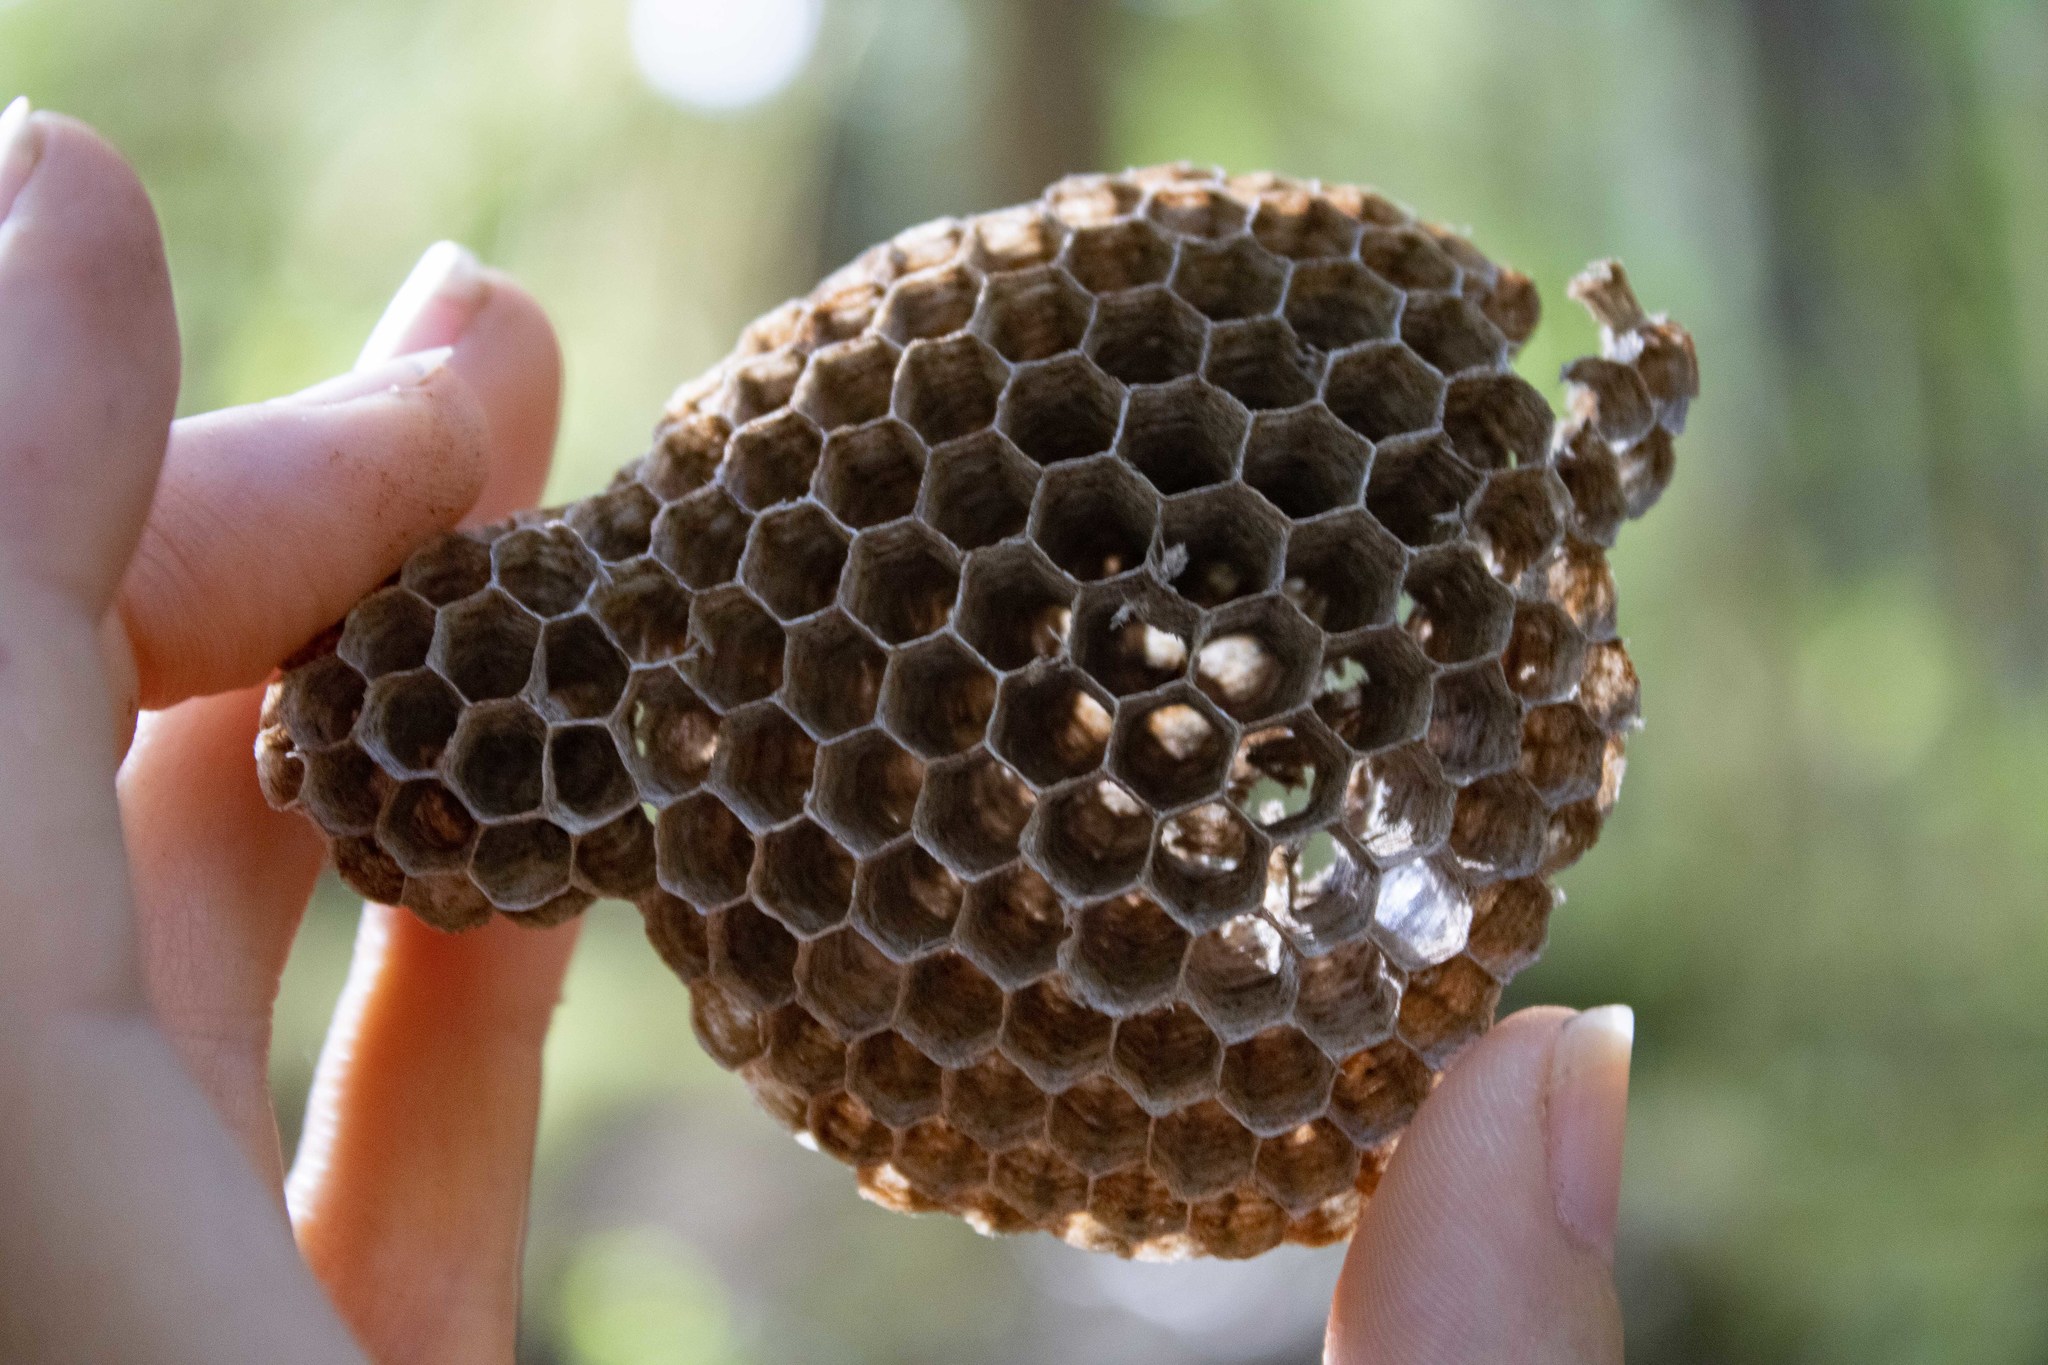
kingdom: Animalia
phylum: Arthropoda
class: Insecta
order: Hymenoptera
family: Vespidae
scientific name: Vespidae
